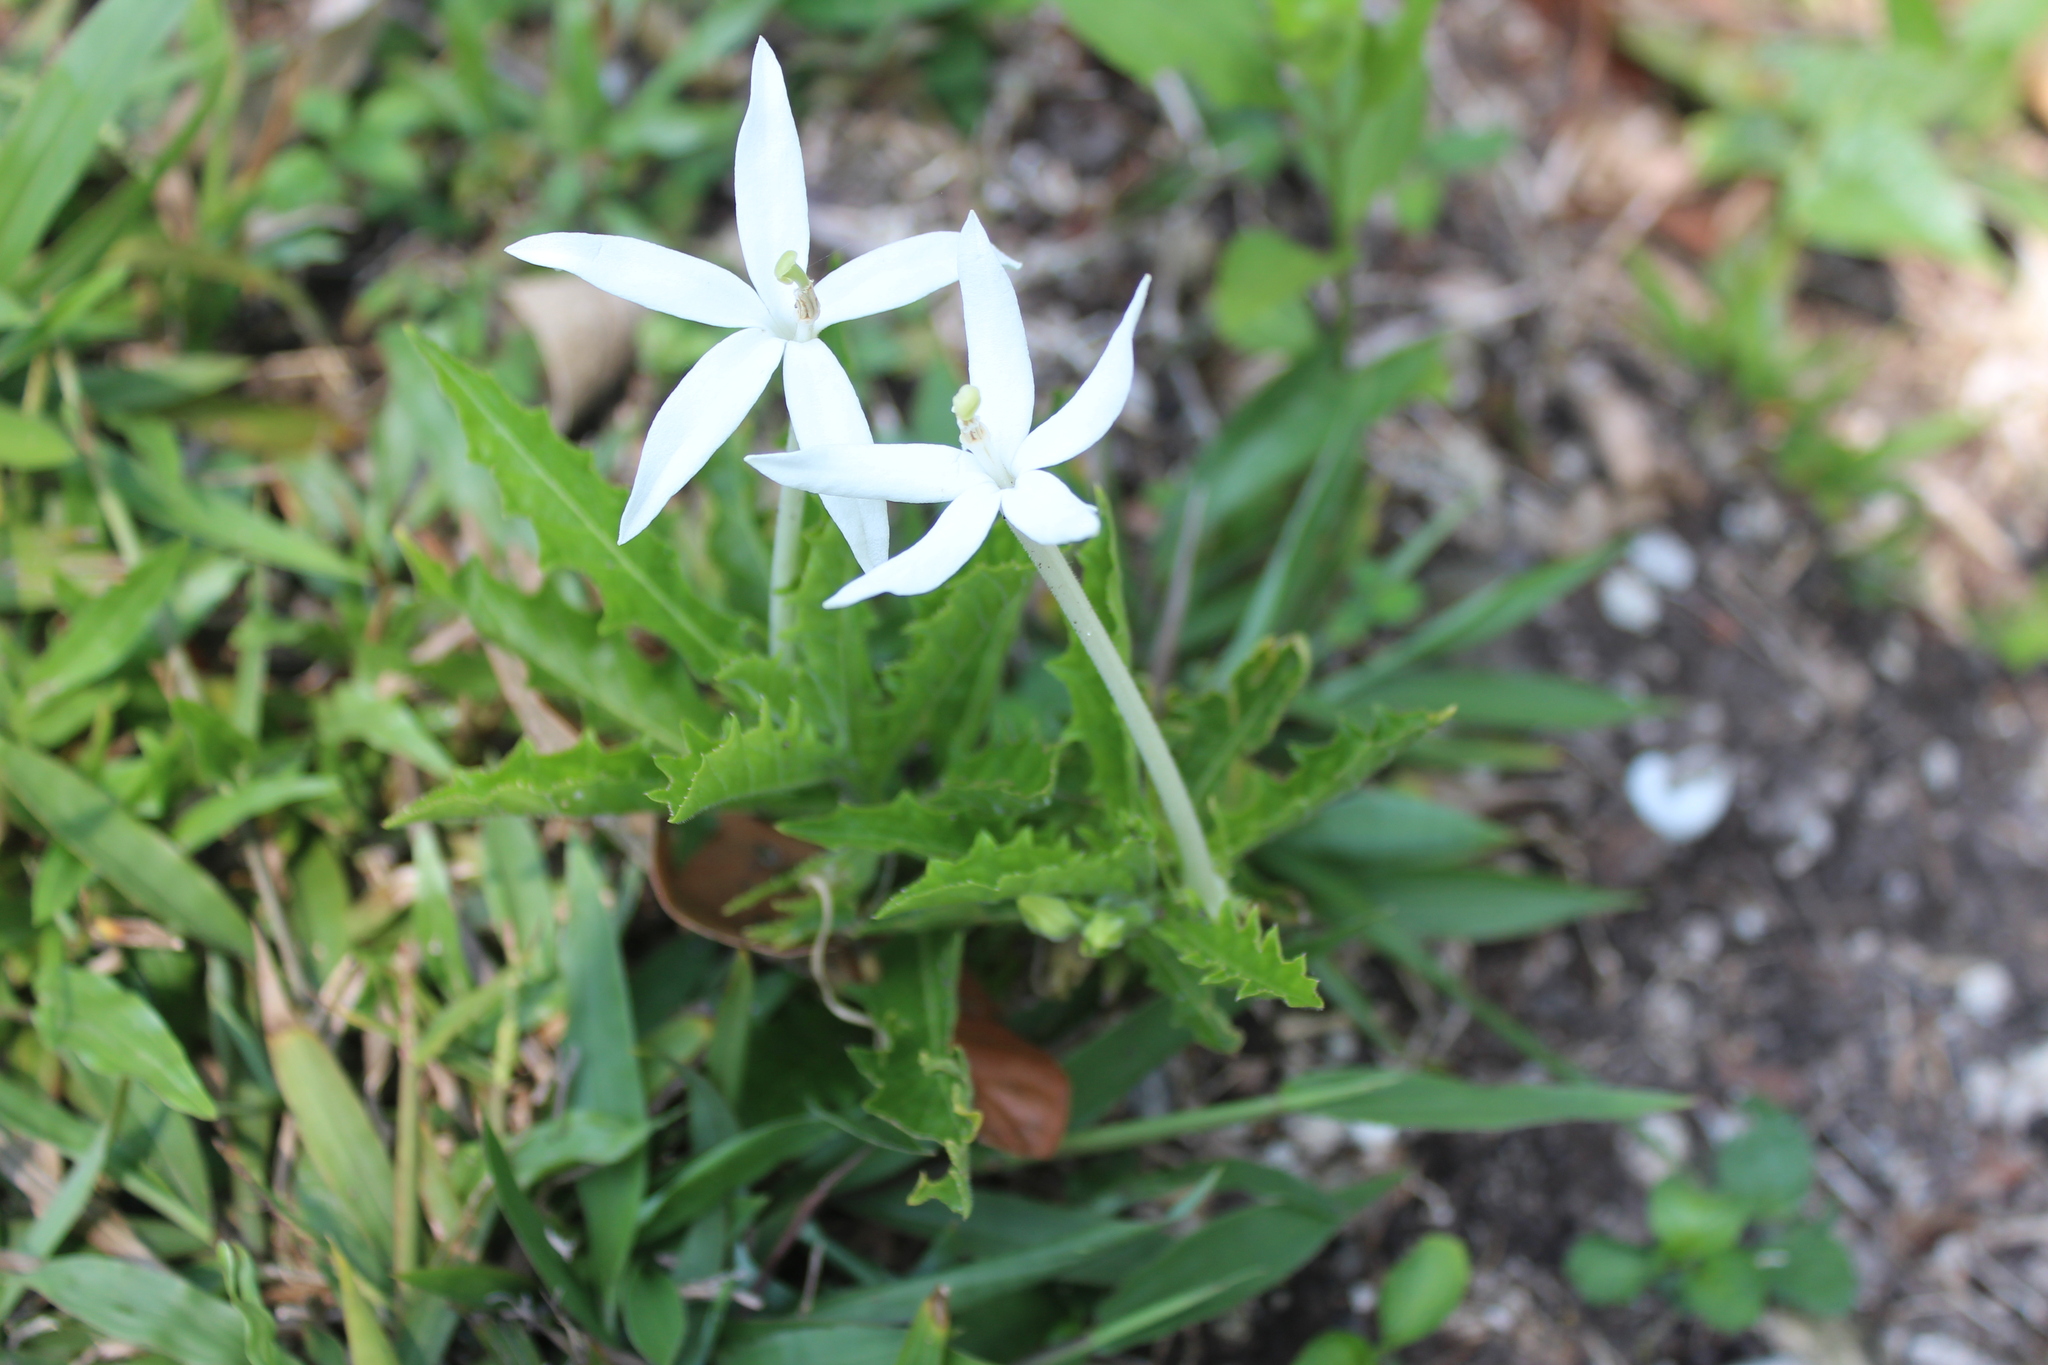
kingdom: Plantae
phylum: Tracheophyta
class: Magnoliopsida
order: Asterales
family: Campanulaceae
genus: Hippobroma
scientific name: Hippobroma longiflora
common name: Madamfate
